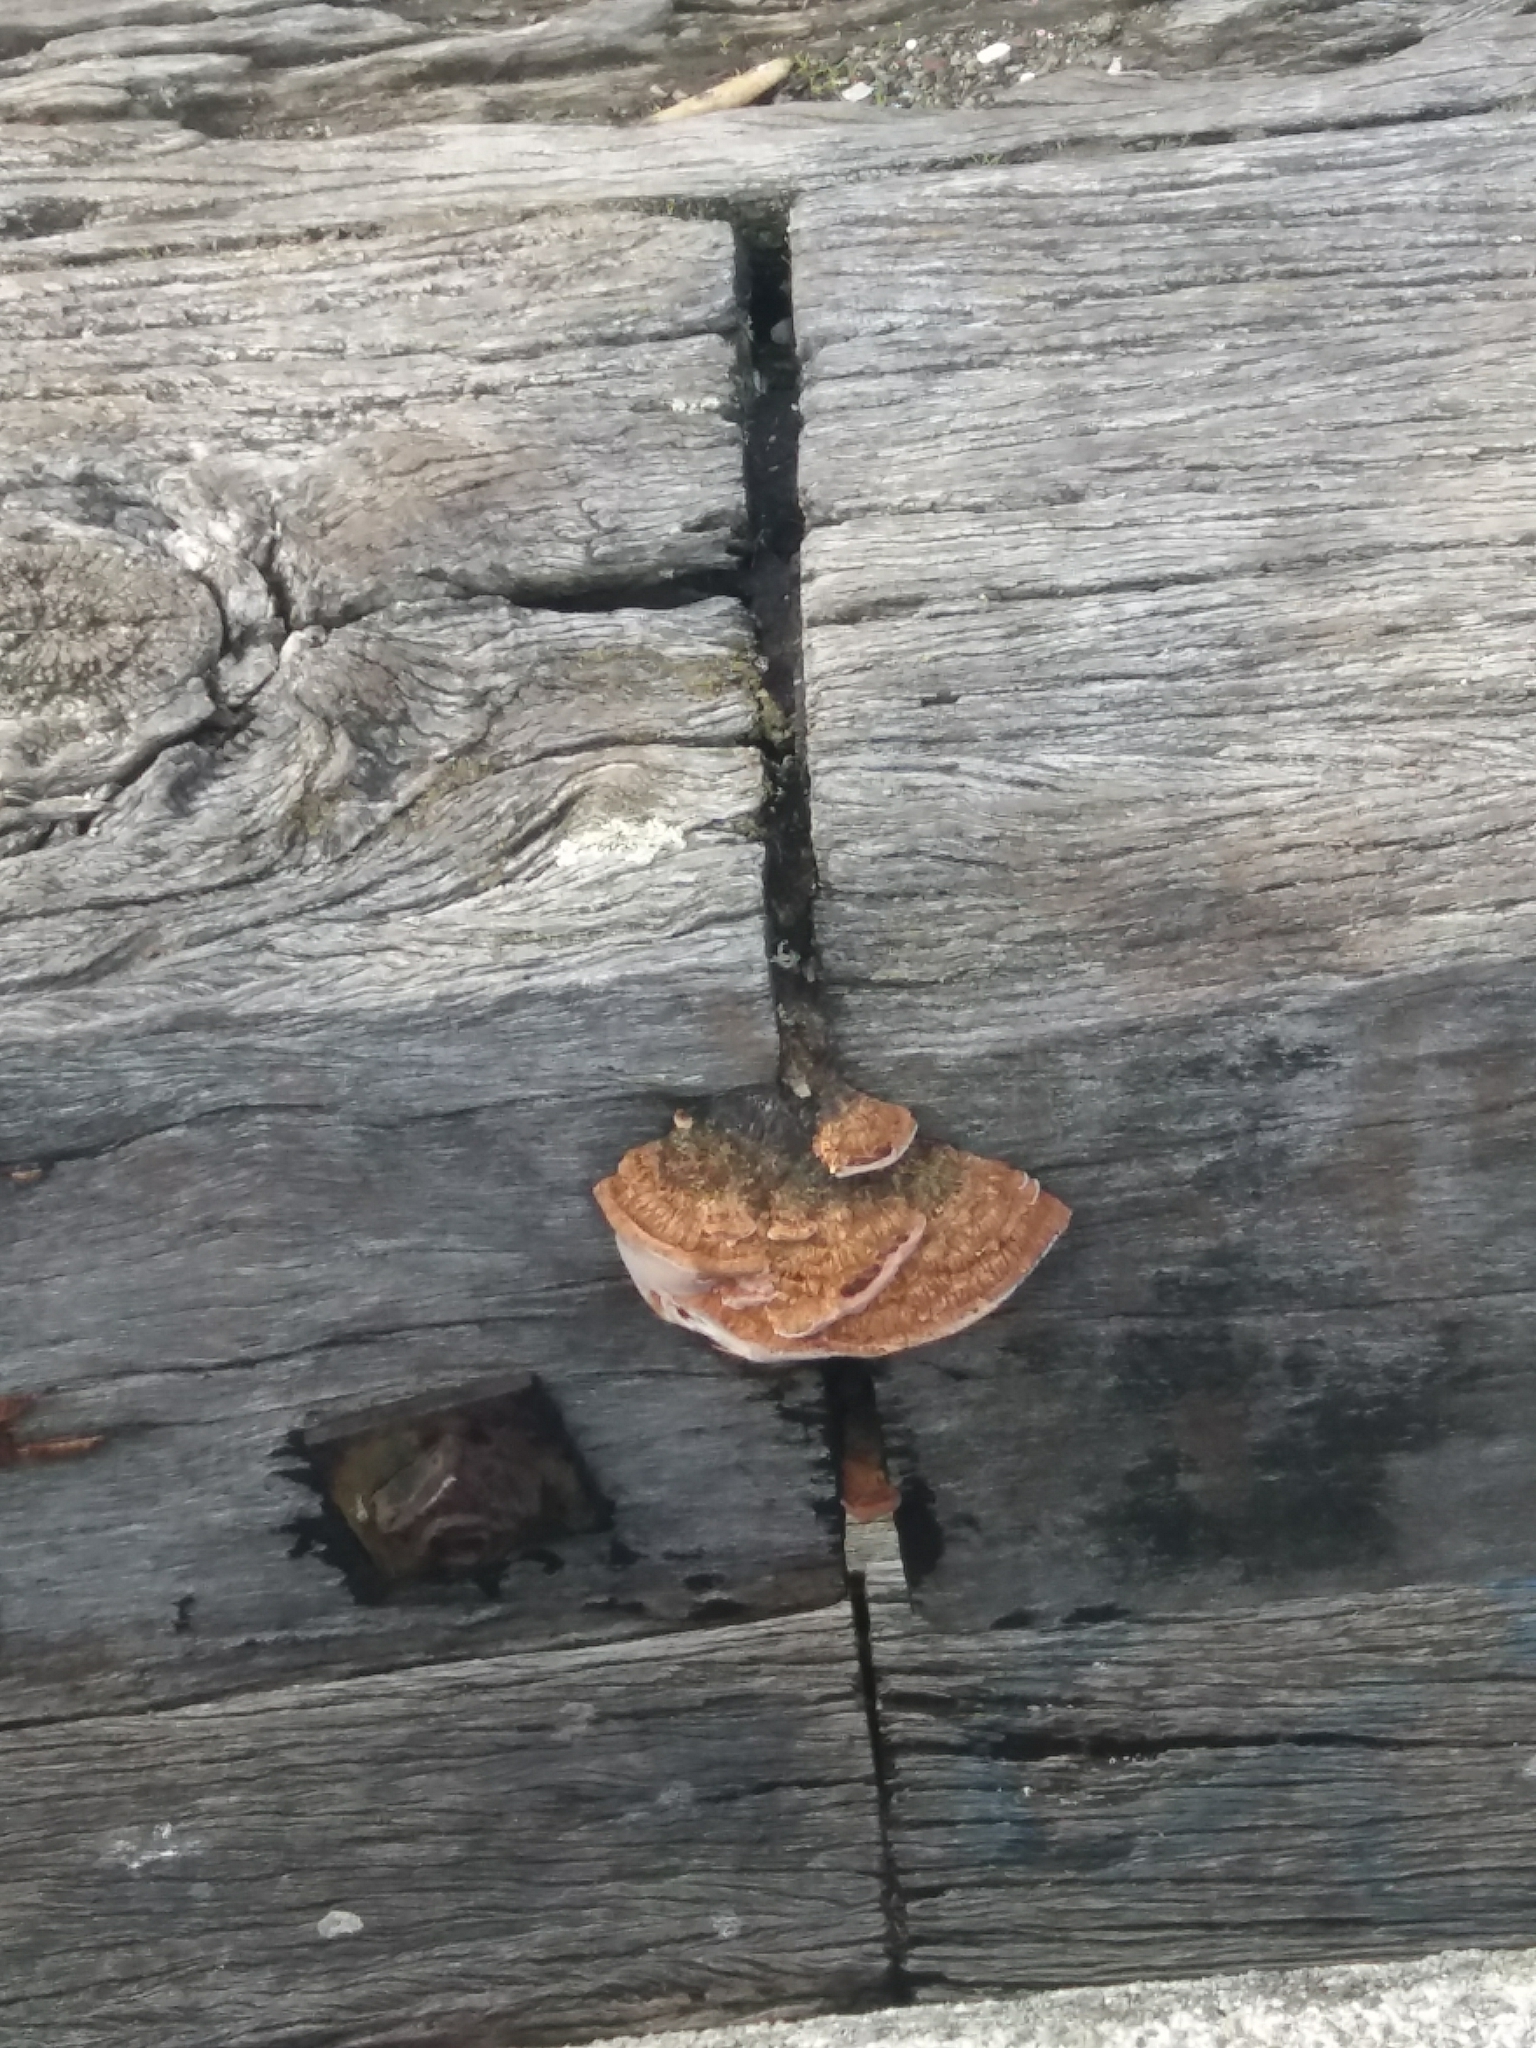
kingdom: Fungi
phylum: Basidiomycota
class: Agaricomycetes
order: Gloeophyllales
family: Gloeophyllaceae
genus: Gloeophyllum
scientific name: Gloeophyllum sepiarium
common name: Conifer mazegill
